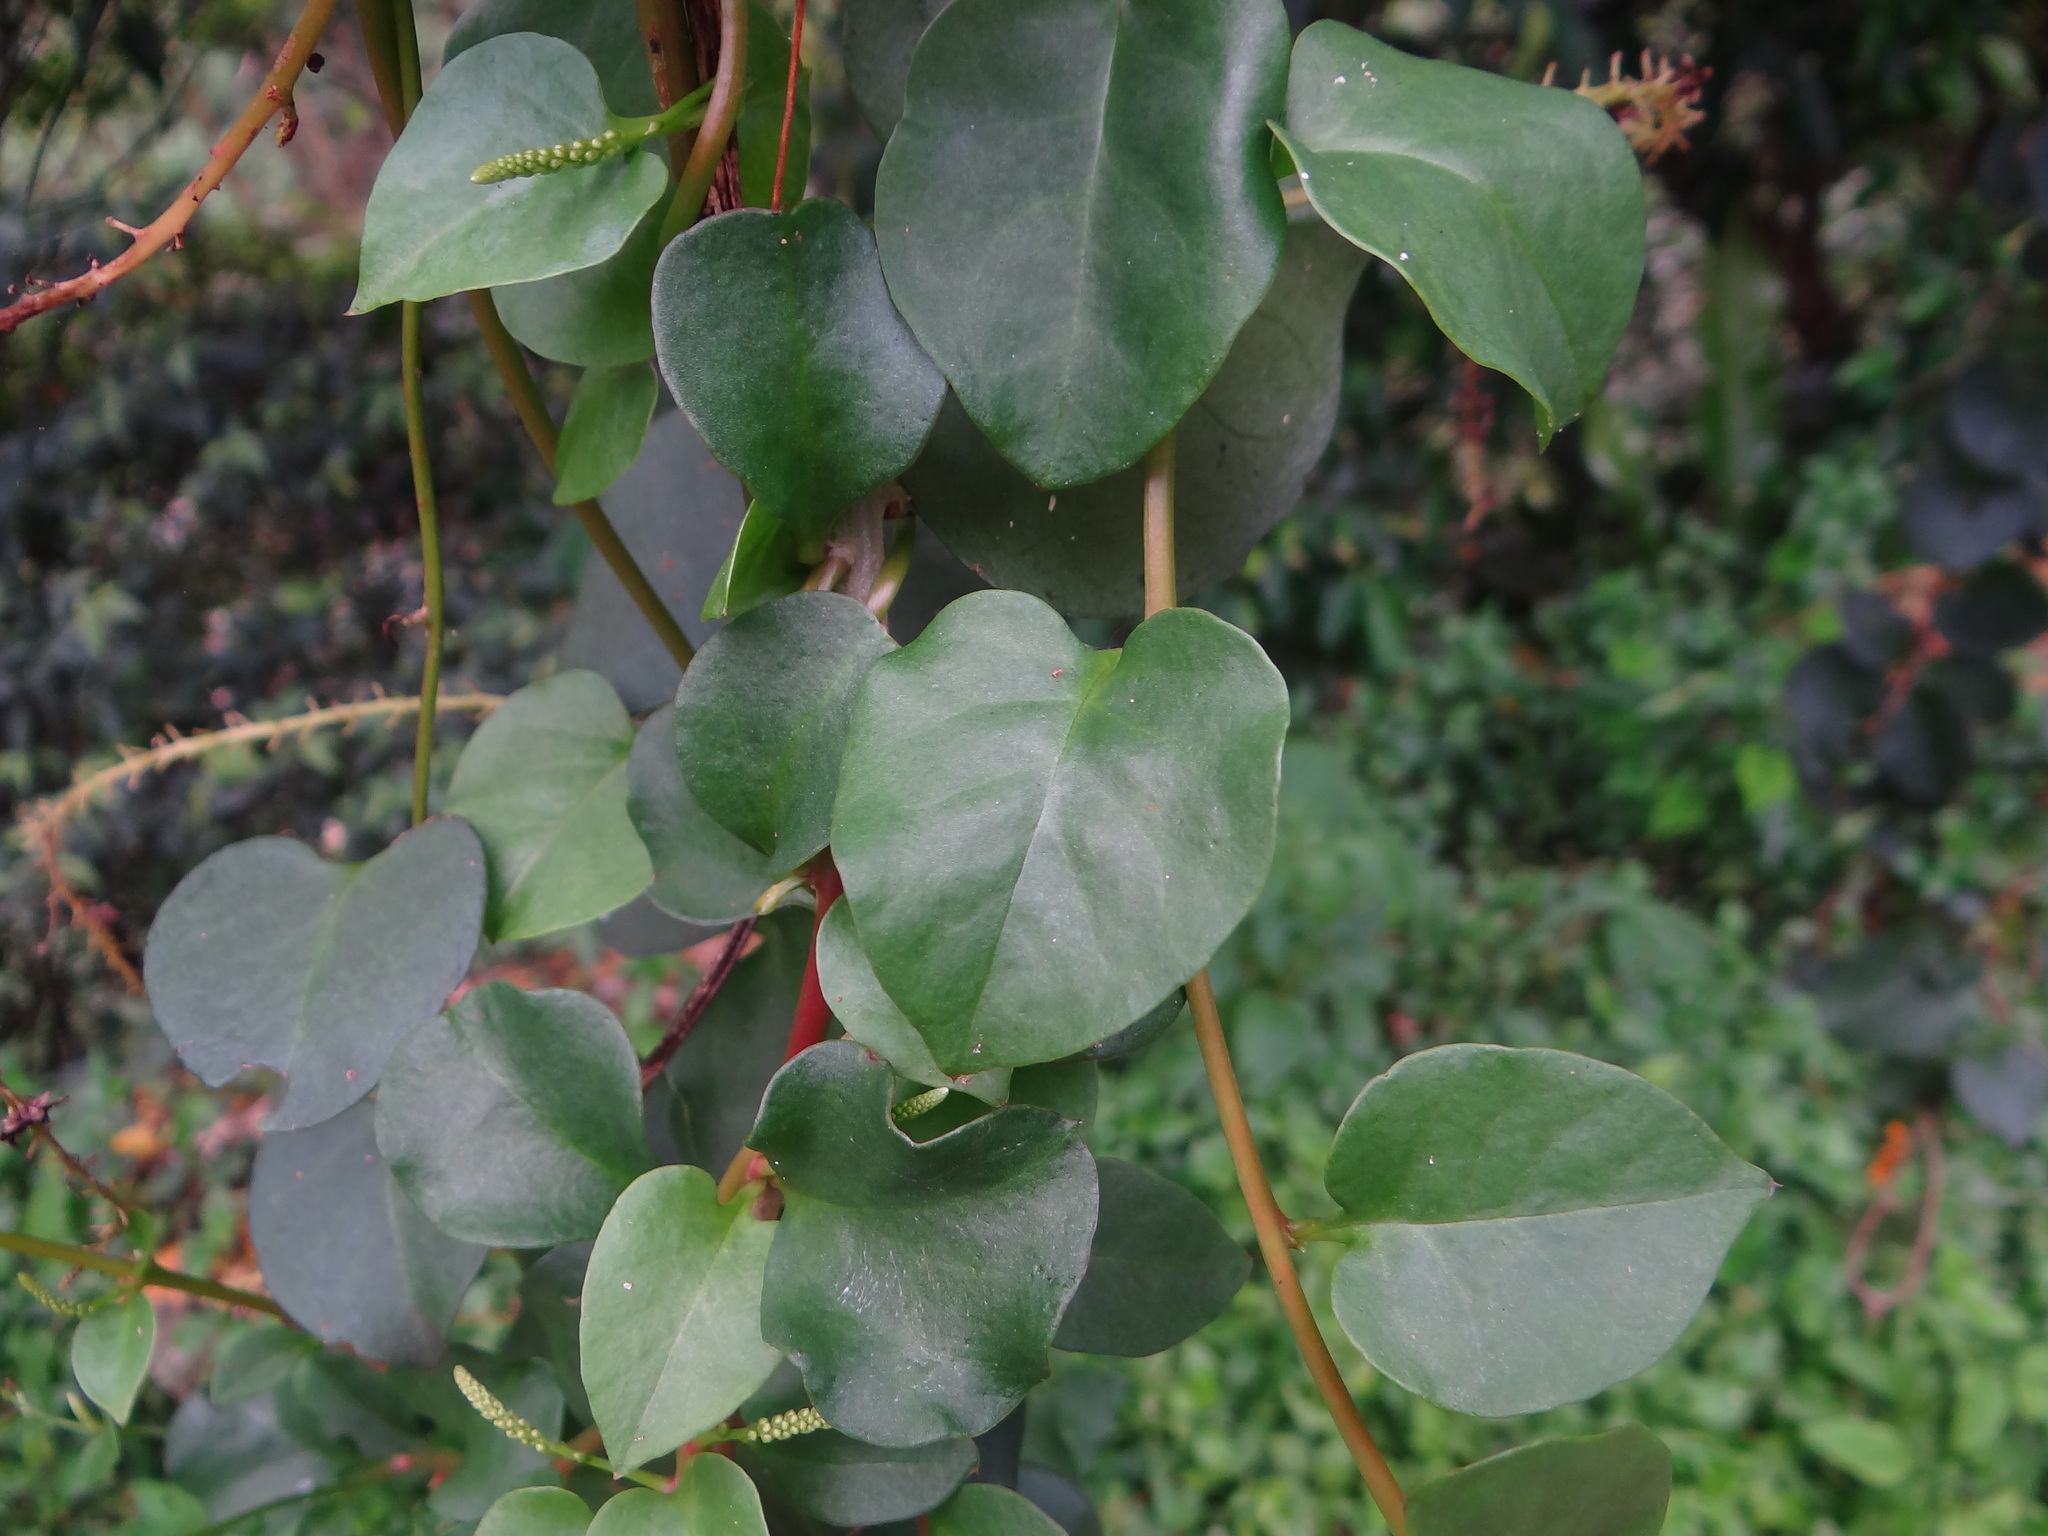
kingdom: Plantae
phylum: Tracheophyta
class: Magnoliopsida
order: Caryophyllales
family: Basellaceae
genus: Anredera
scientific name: Anredera cordifolia
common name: Heartleaf madeiravine
